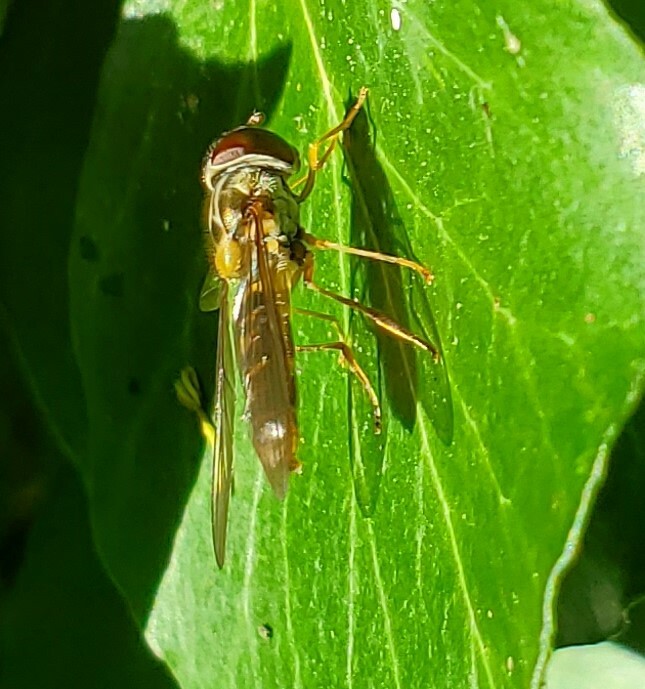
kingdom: Animalia
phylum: Arthropoda
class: Insecta
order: Diptera
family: Syrphidae
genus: Episyrphus
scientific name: Episyrphus balteatus
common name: Marmalade hoverfly
